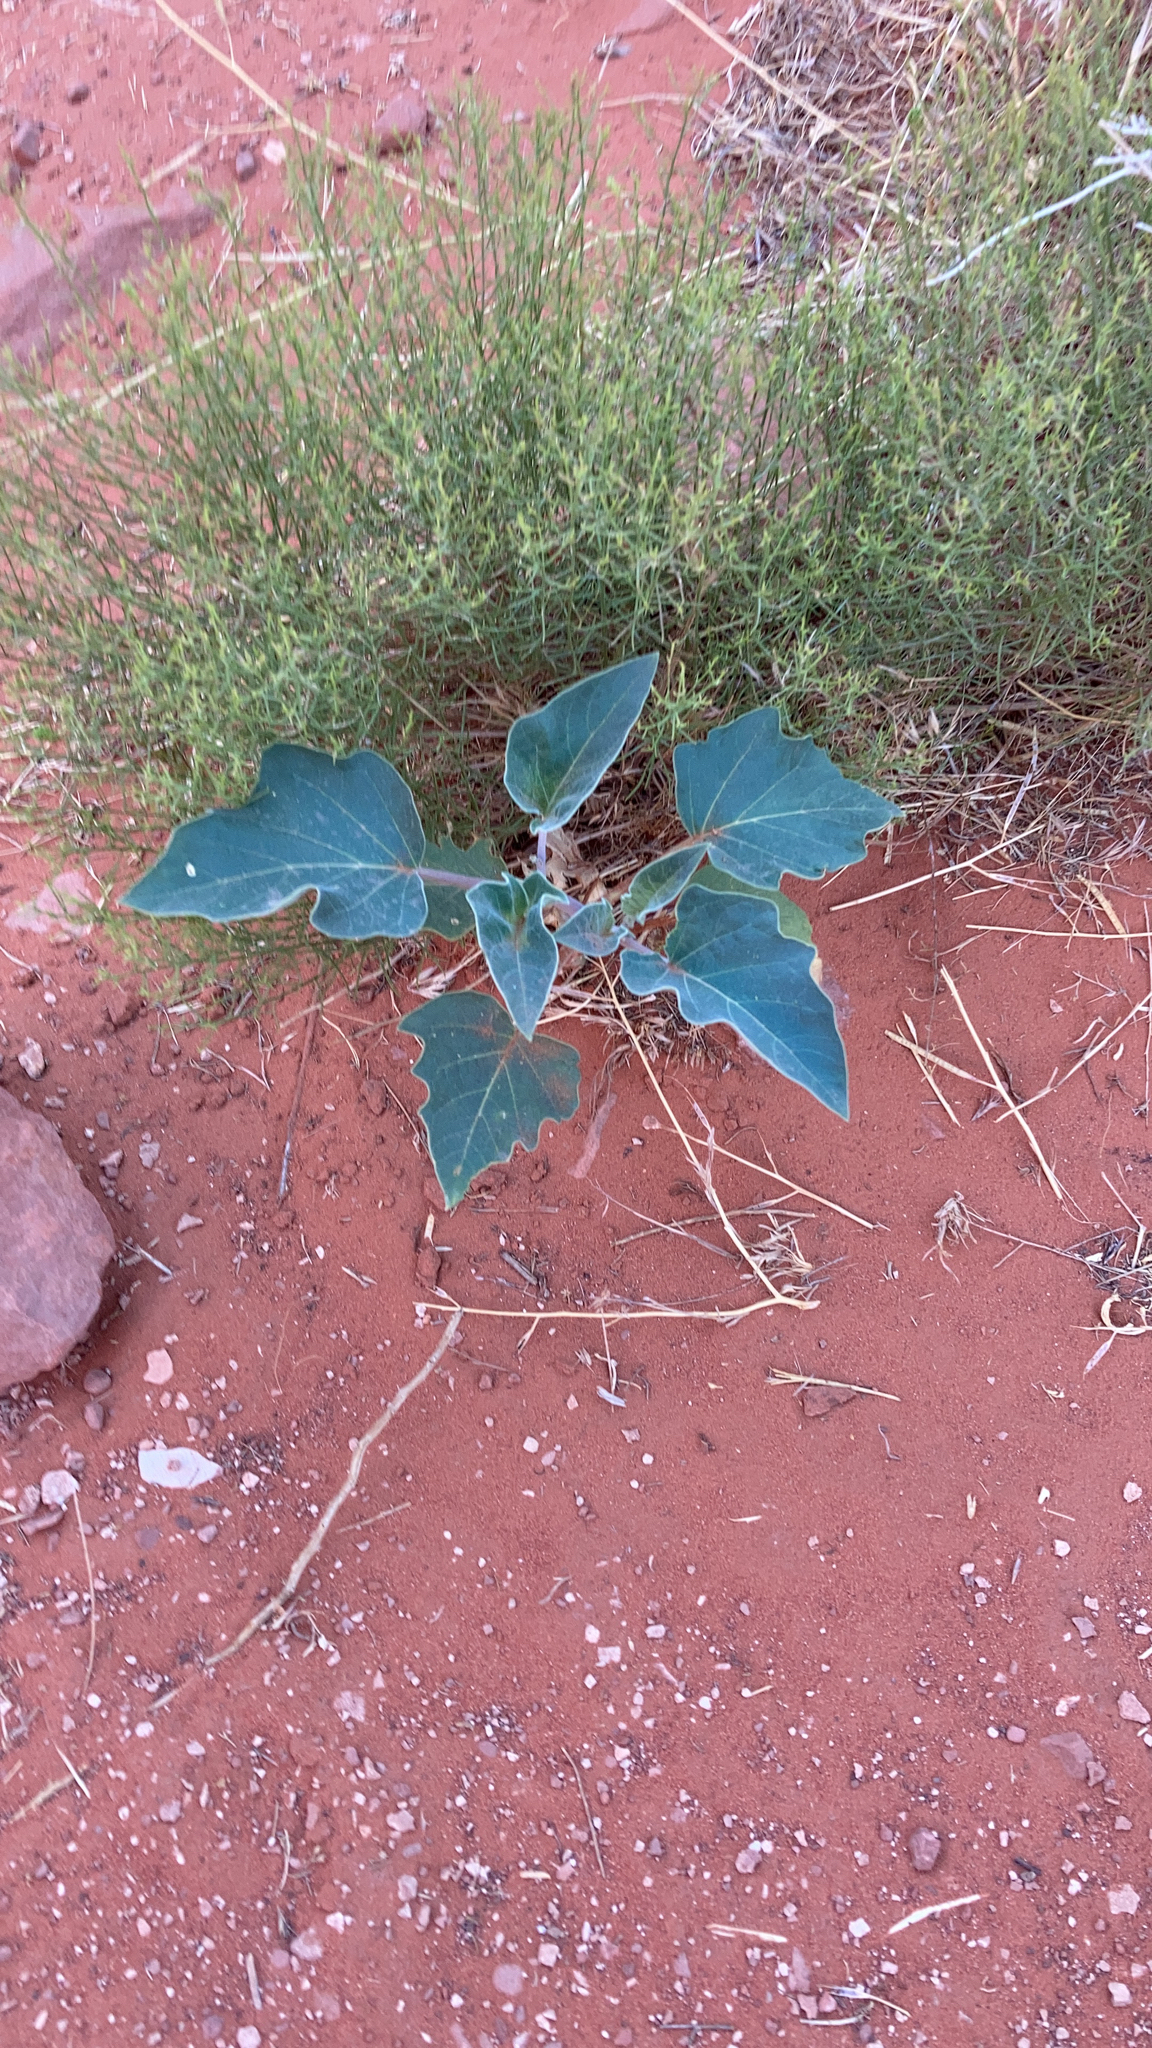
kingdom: Plantae
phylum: Tracheophyta
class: Magnoliopsida
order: Solanales
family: Solanaceae
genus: Datura
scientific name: Datura wrightii
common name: Sacred thorn-apple
